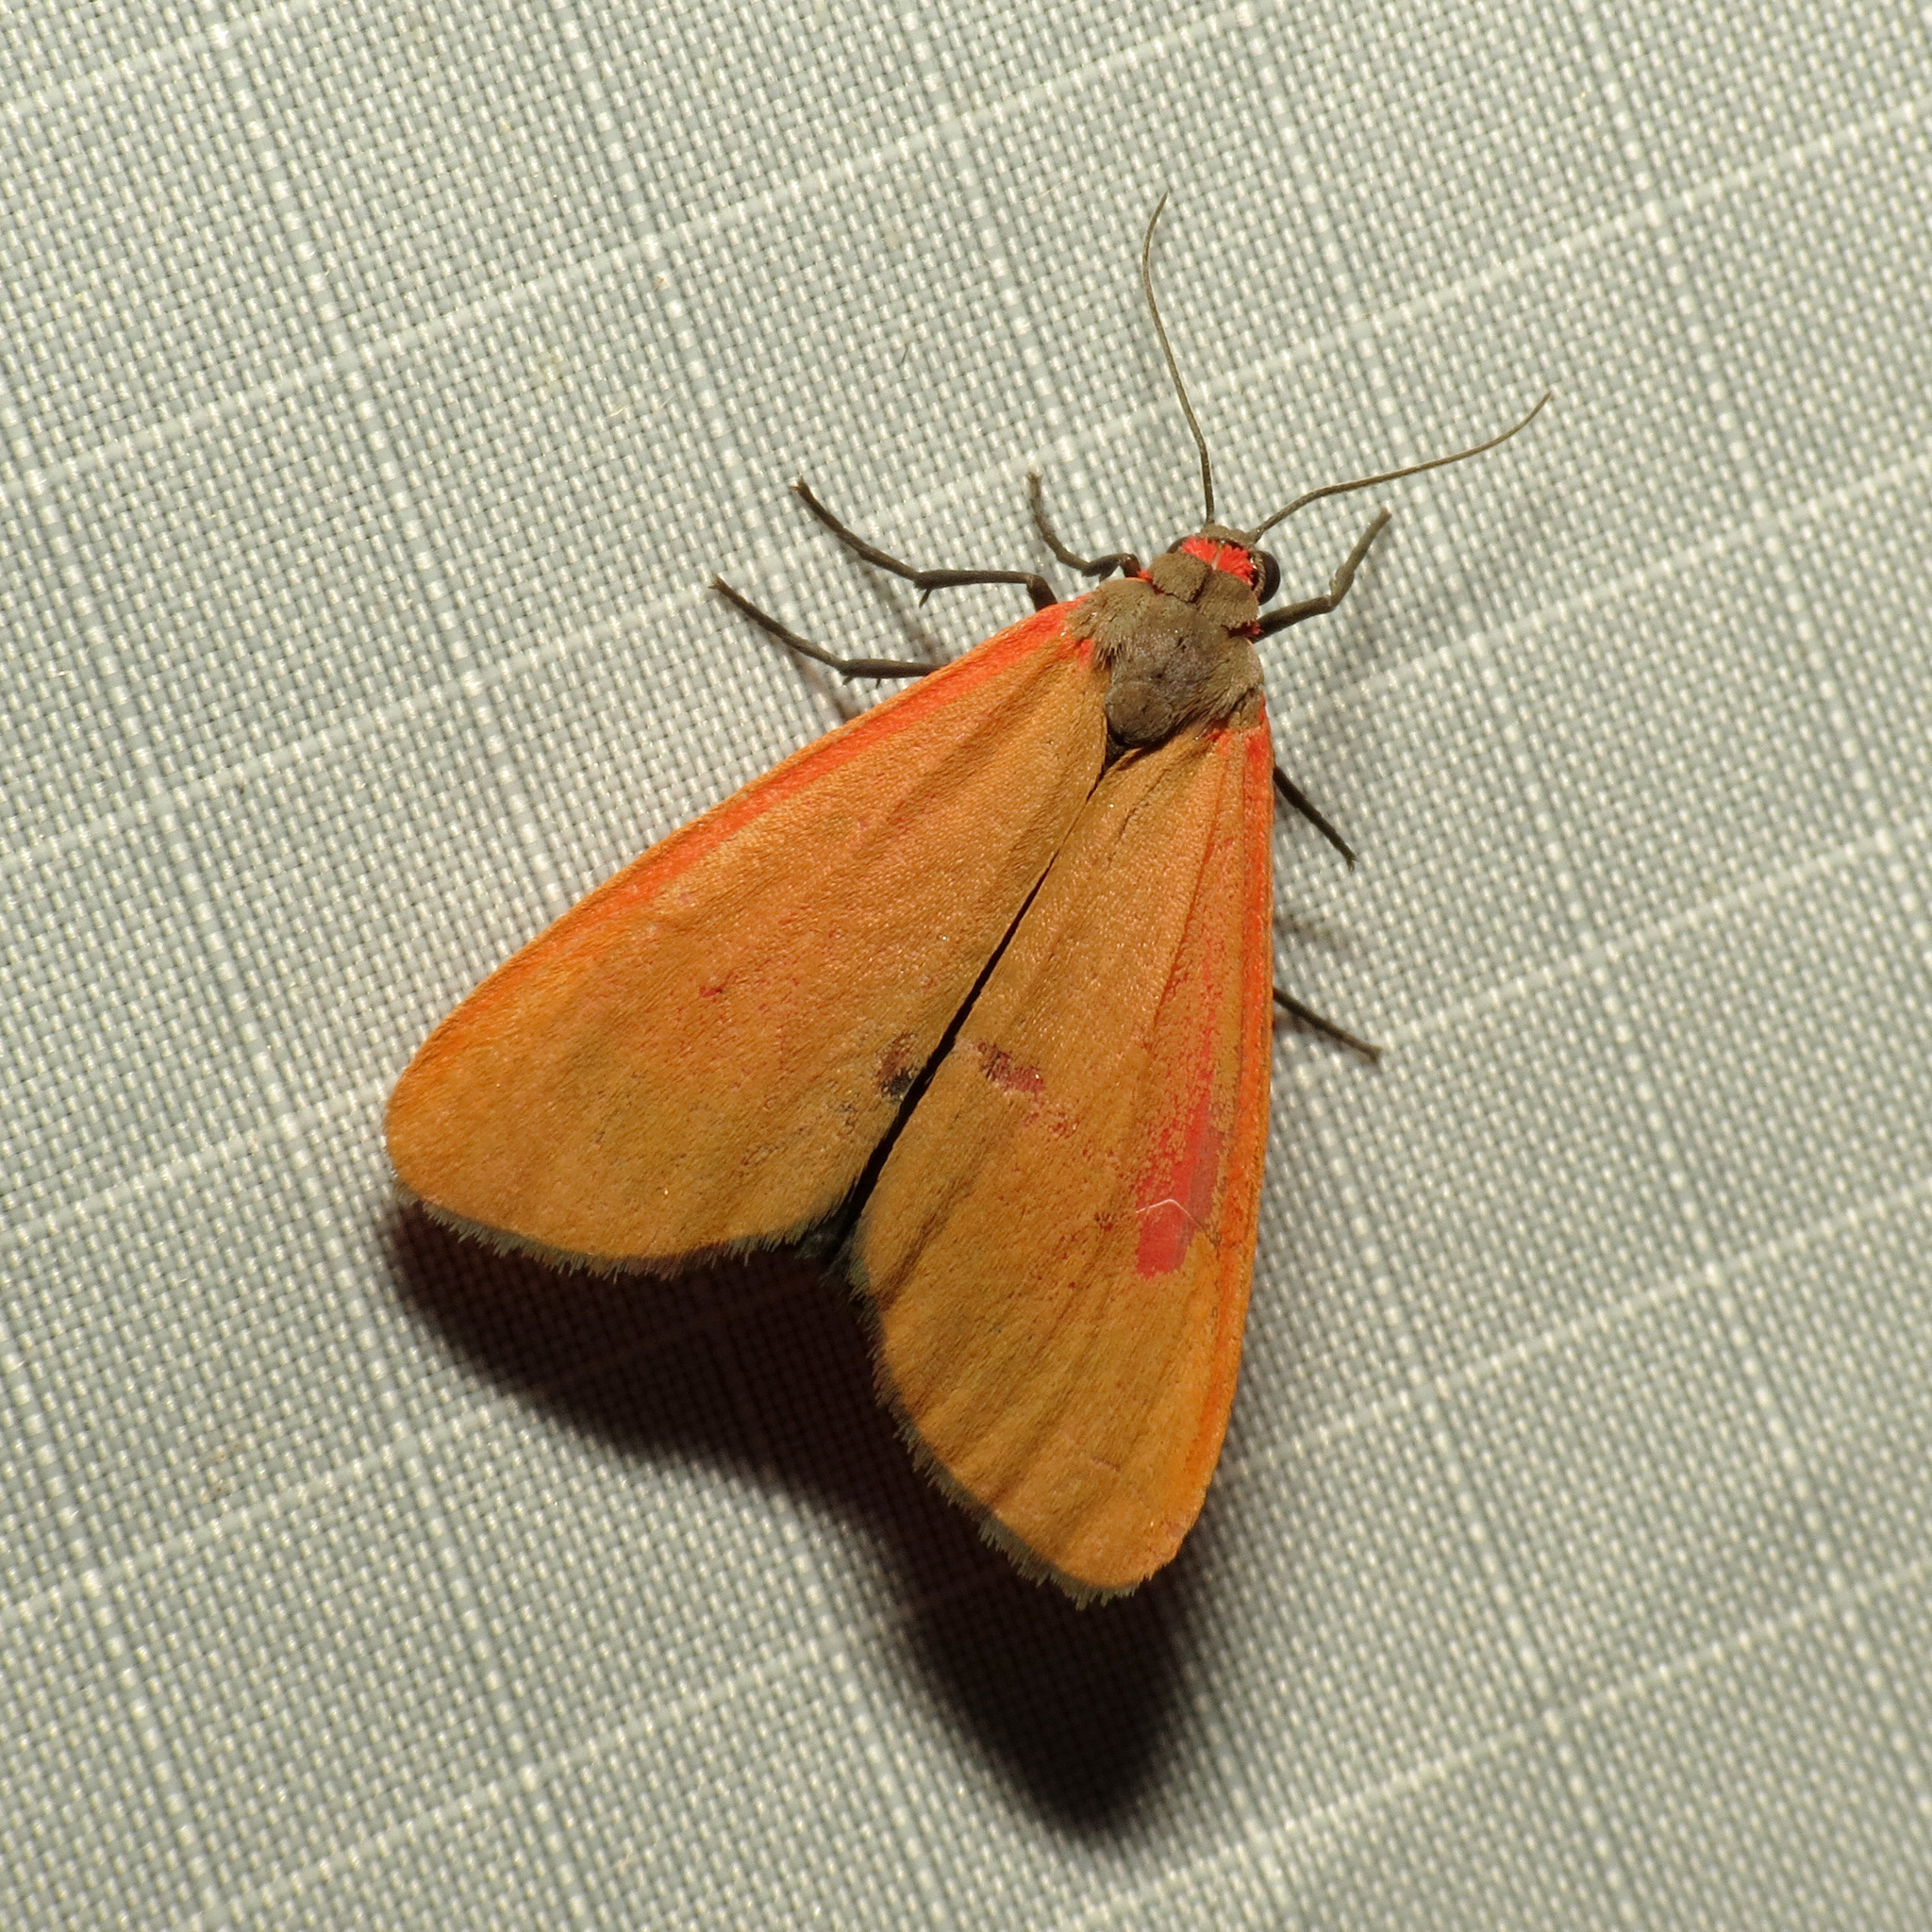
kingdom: Animalia
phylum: Arthropoda
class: Insecta
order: Lepidoptera
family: Erebidae
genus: Virbia
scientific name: Virbia ostenta
